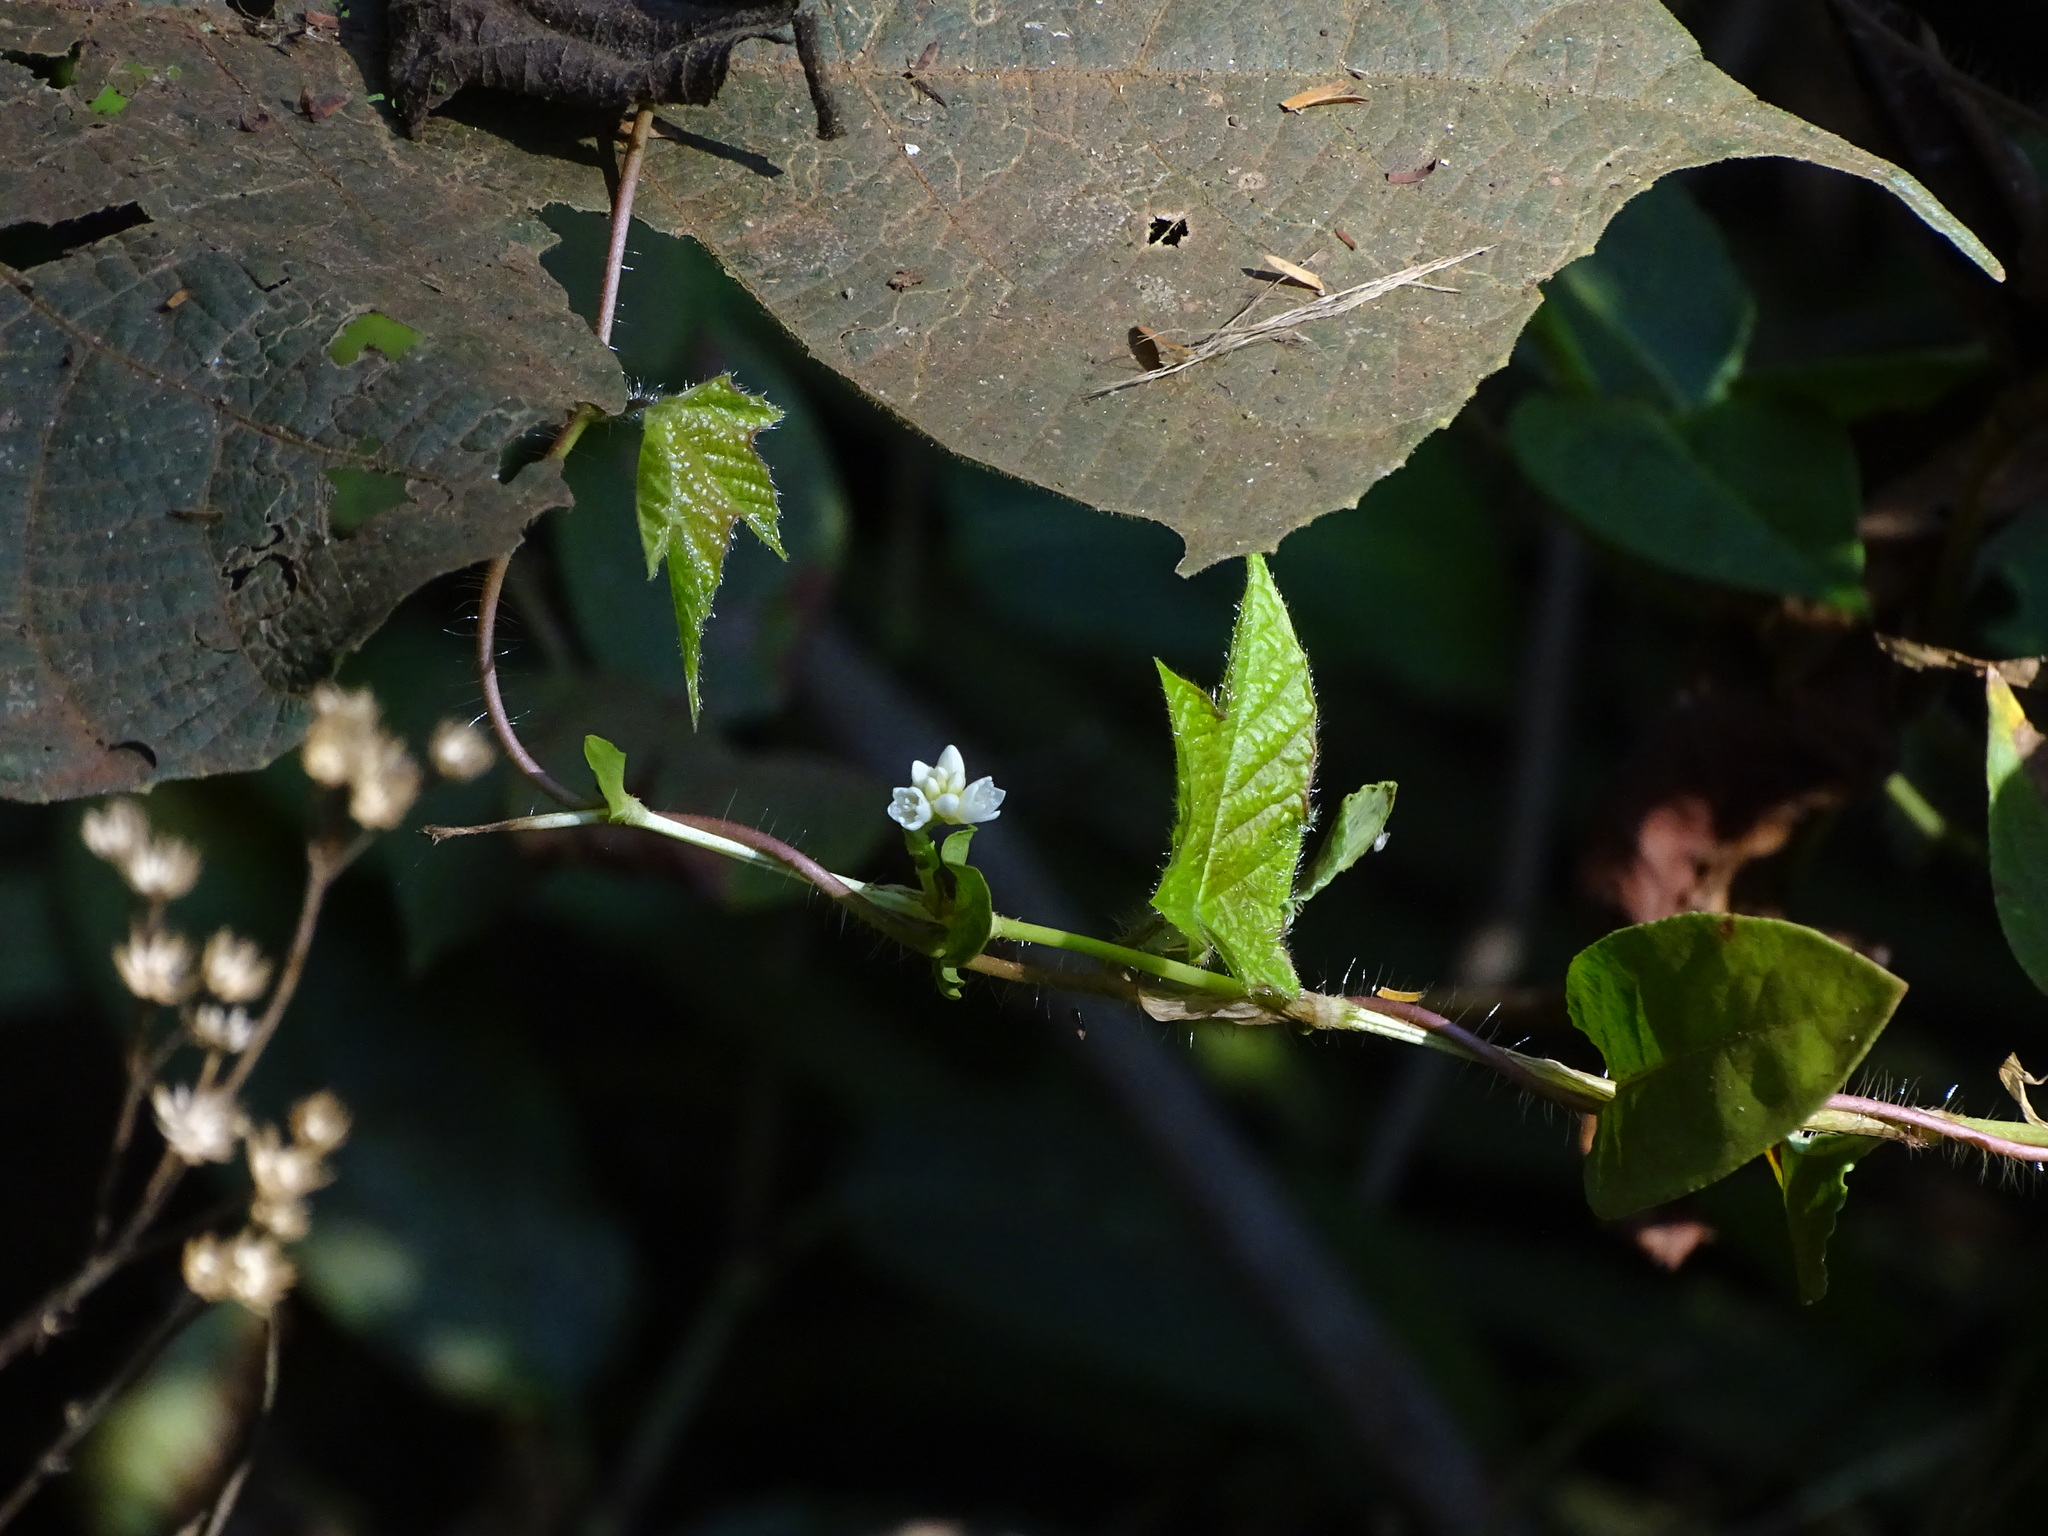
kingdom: Plantae
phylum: Tracheophyta
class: Magnoliopsida
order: Caryophyllales
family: Polygonaceae
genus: Persicaria
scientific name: Persicaria chinensis
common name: Chinese knotweed
